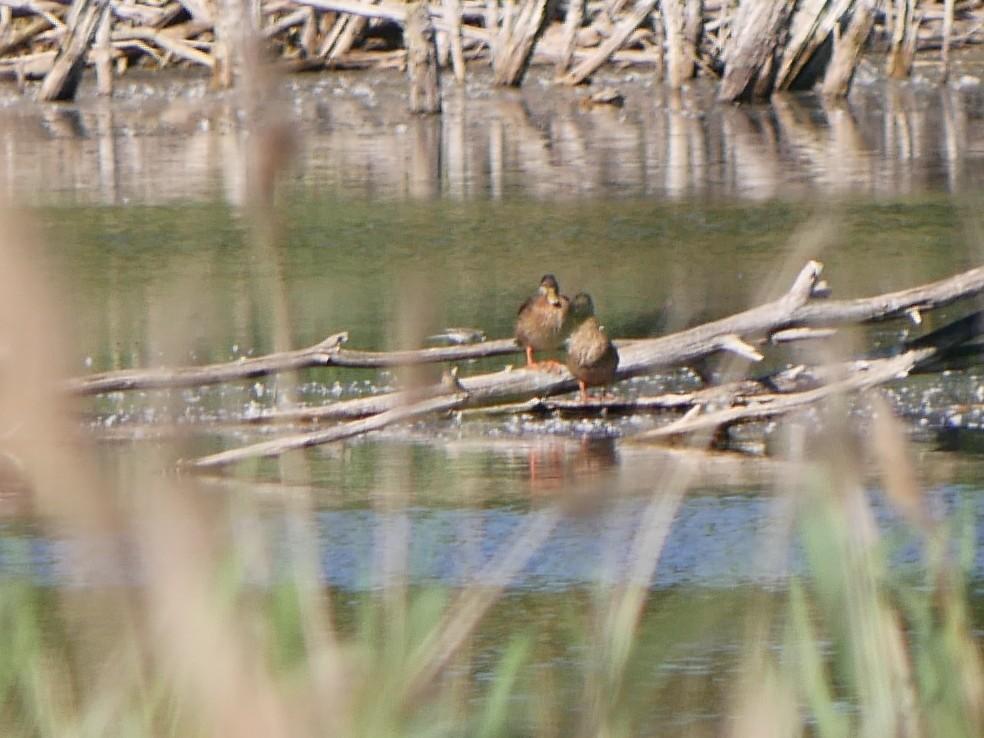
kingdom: Animalia
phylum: Chordata
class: Aves
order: Anseriformes
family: Anatidae
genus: Anas
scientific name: Anas platyrhynchos
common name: Mallard
